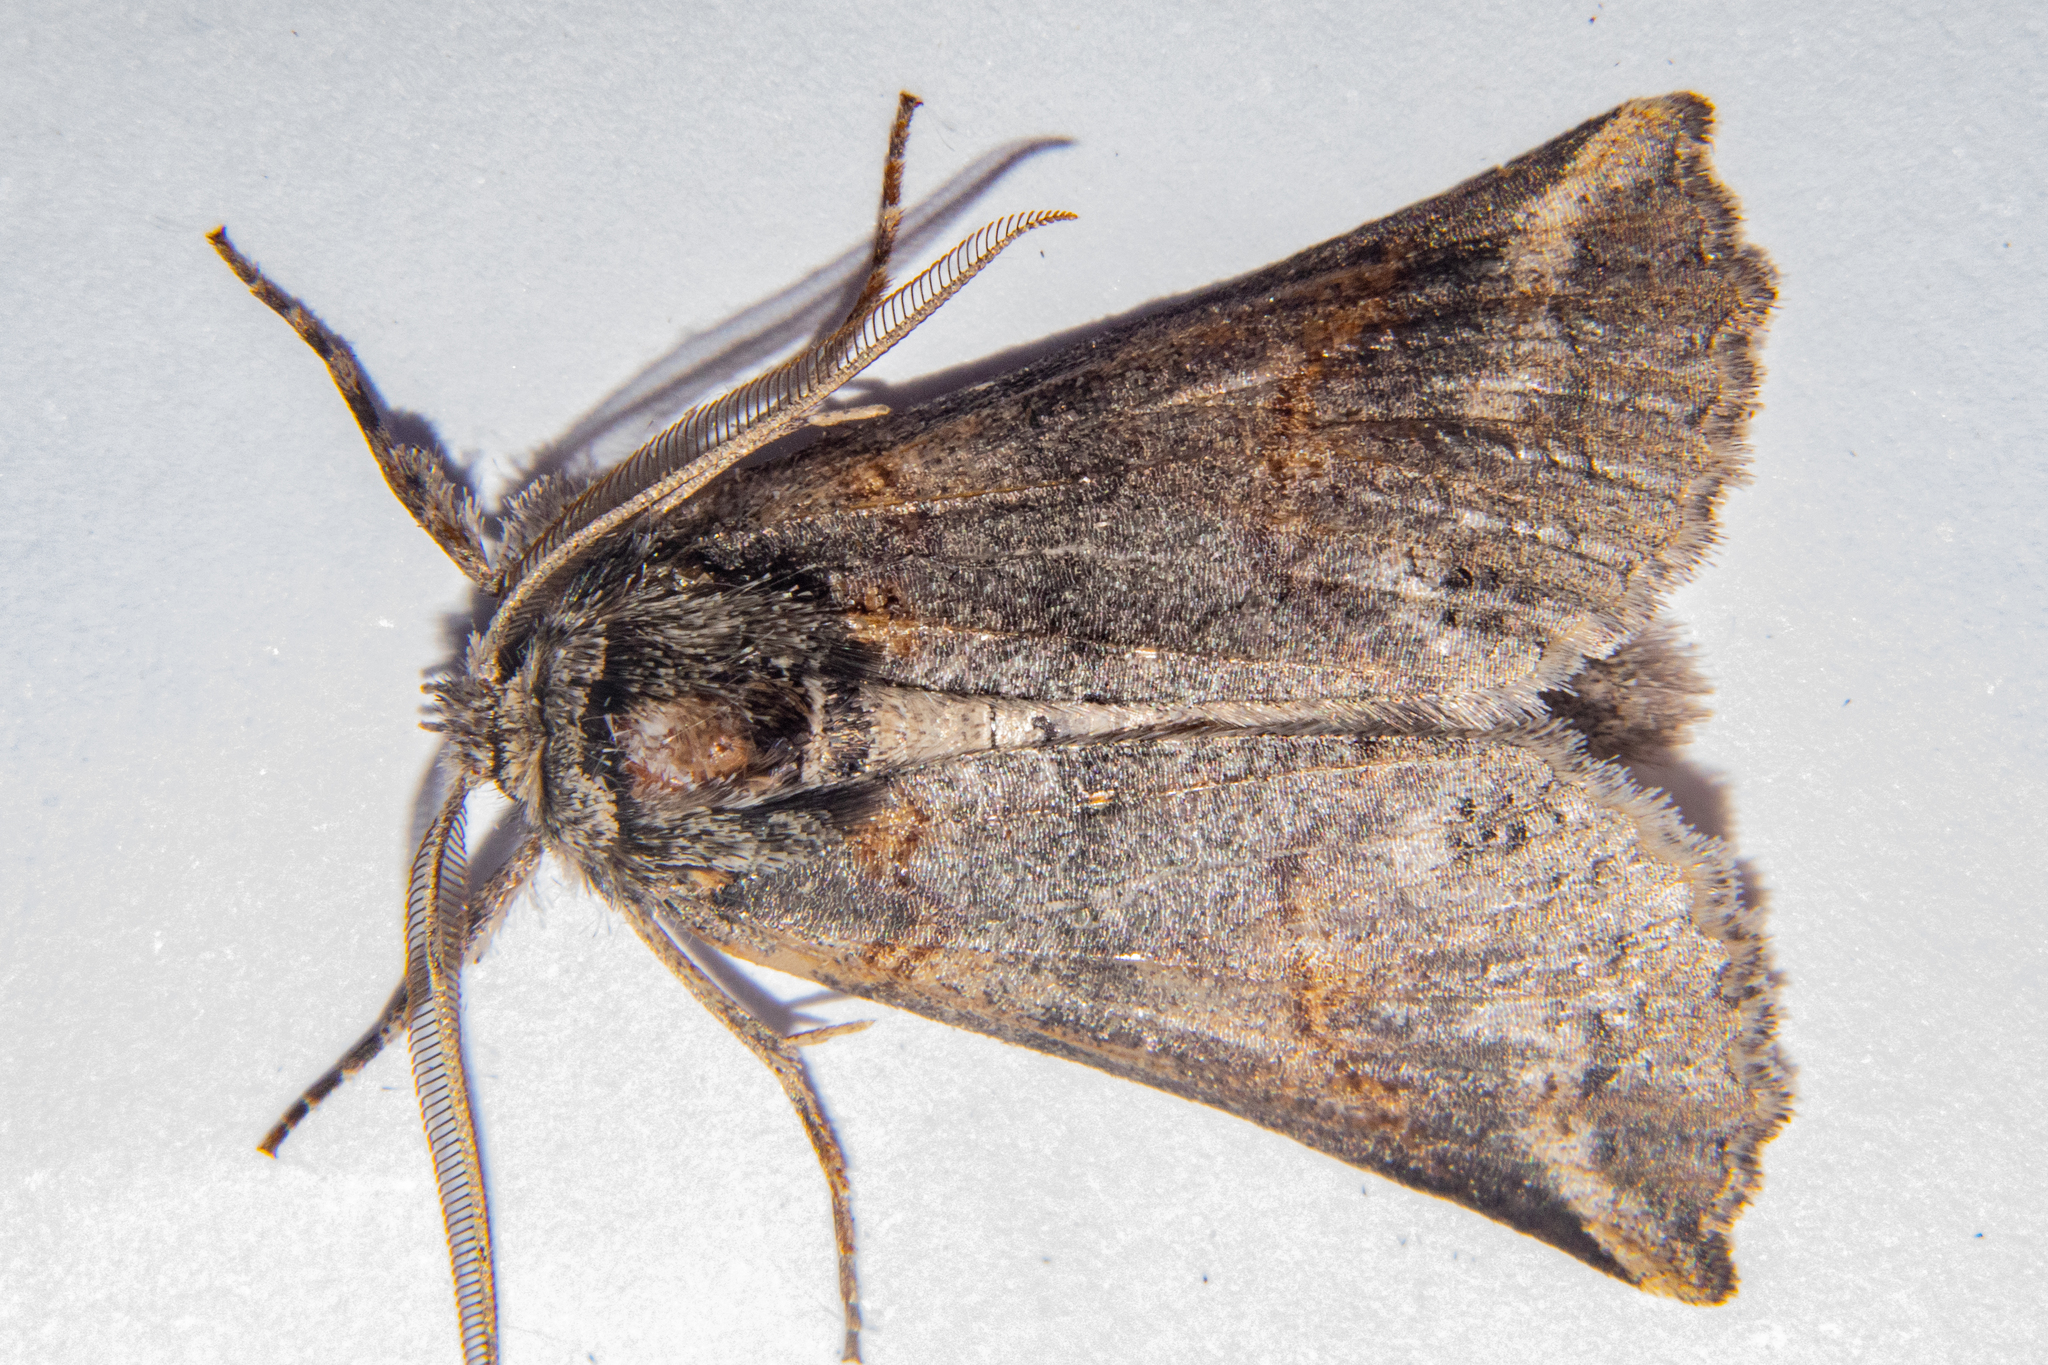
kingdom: Animalia
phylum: Arthropoda
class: Insecta
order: Lepidoptera
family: Geometridae
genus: Declana
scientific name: Declana
